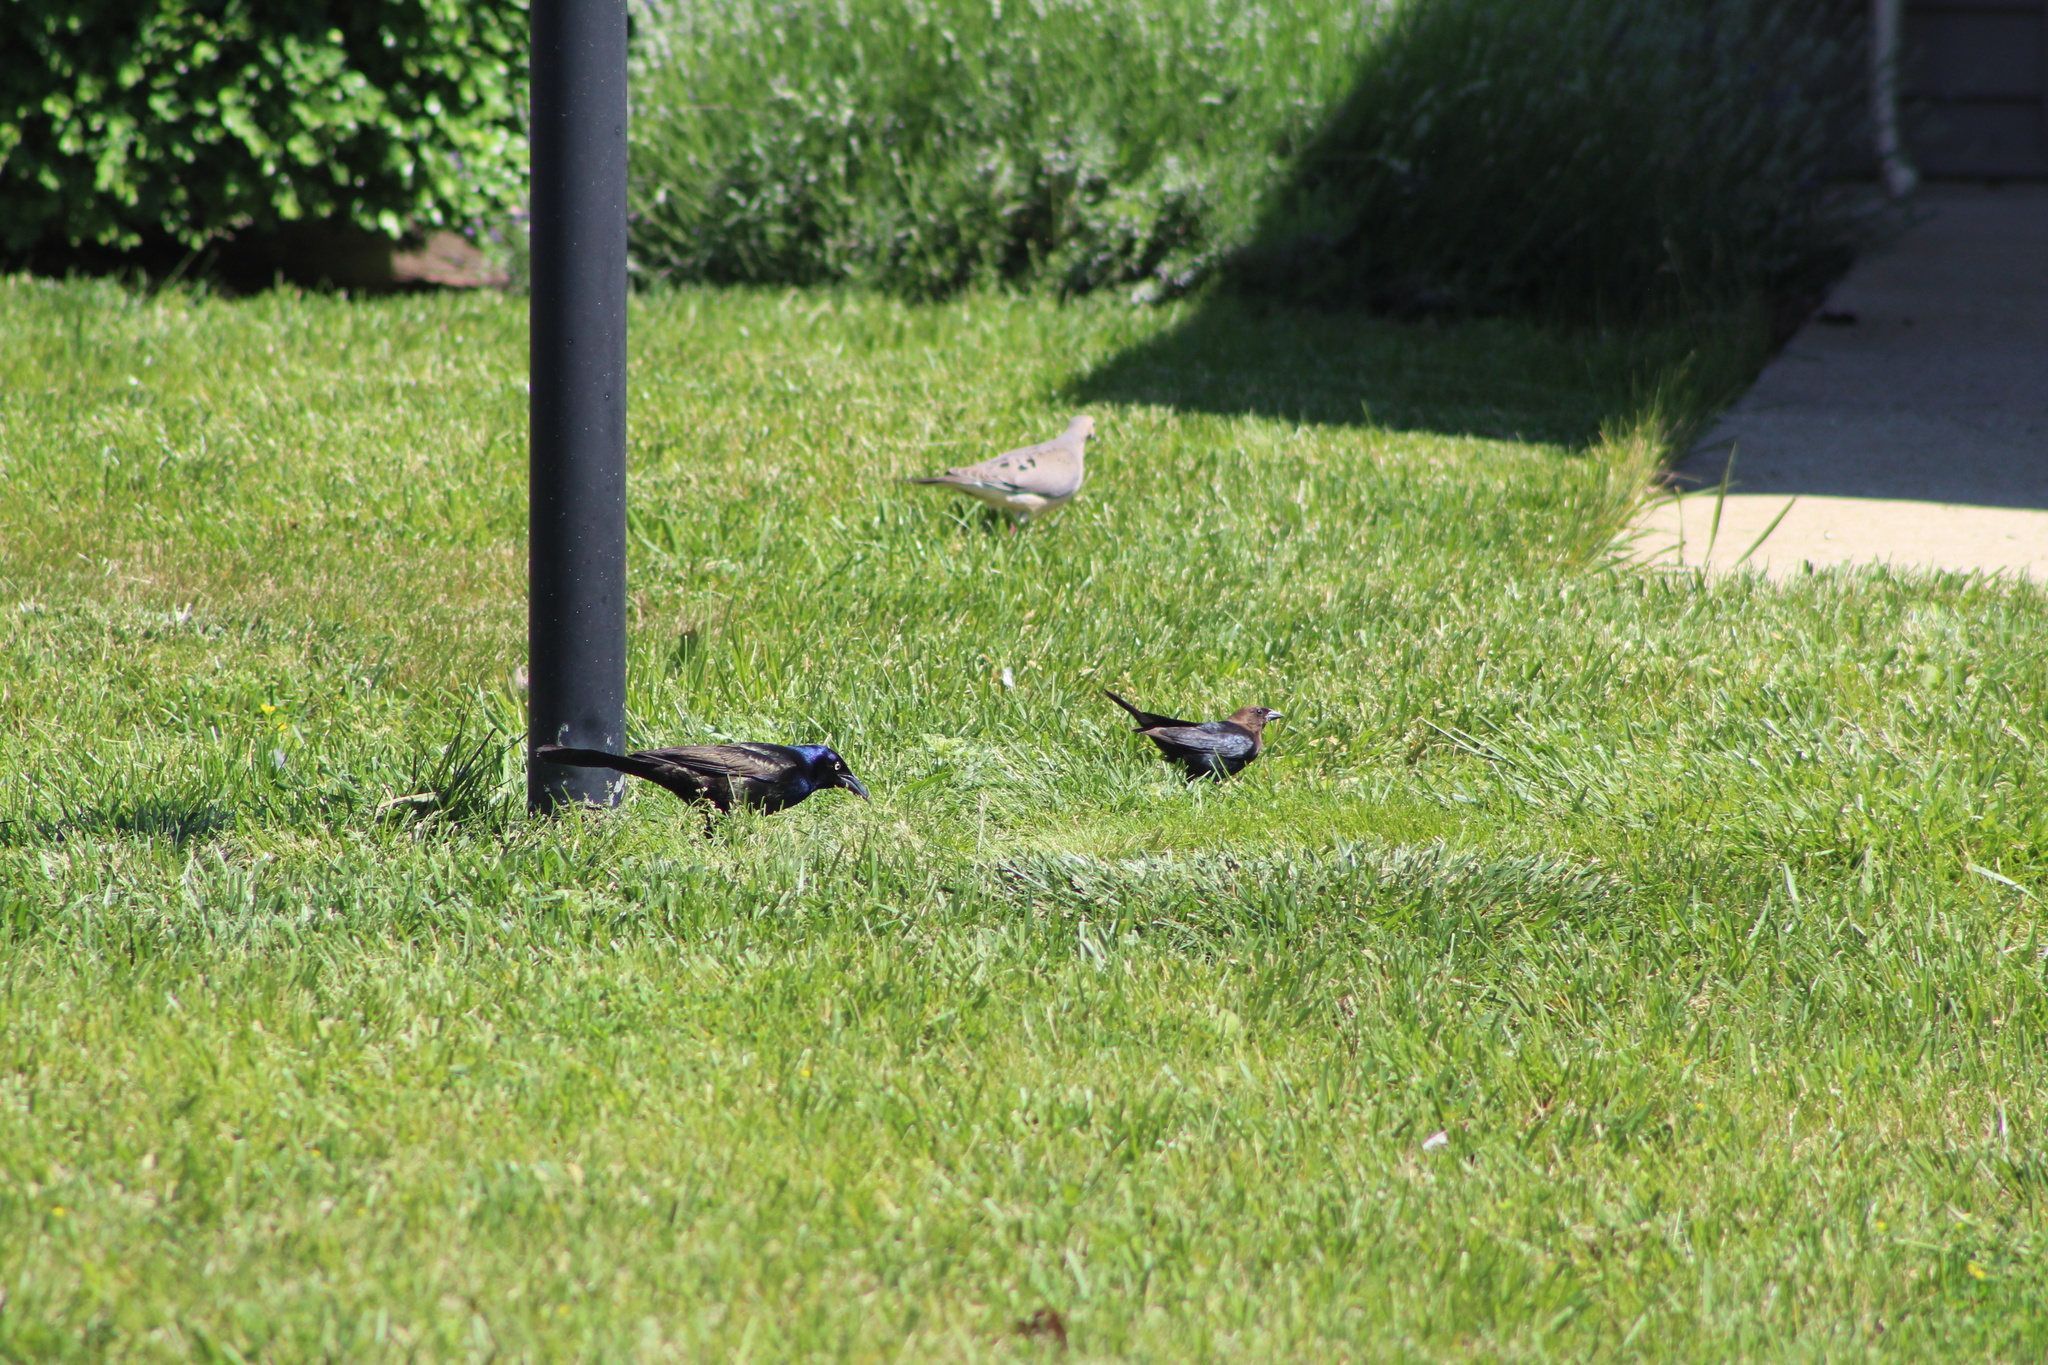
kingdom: Animalia
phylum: Chordata
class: Aves
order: Passeriformes
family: Icteridae
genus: Molothrus
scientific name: Molothrus ater
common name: Brown-headed cowbird
